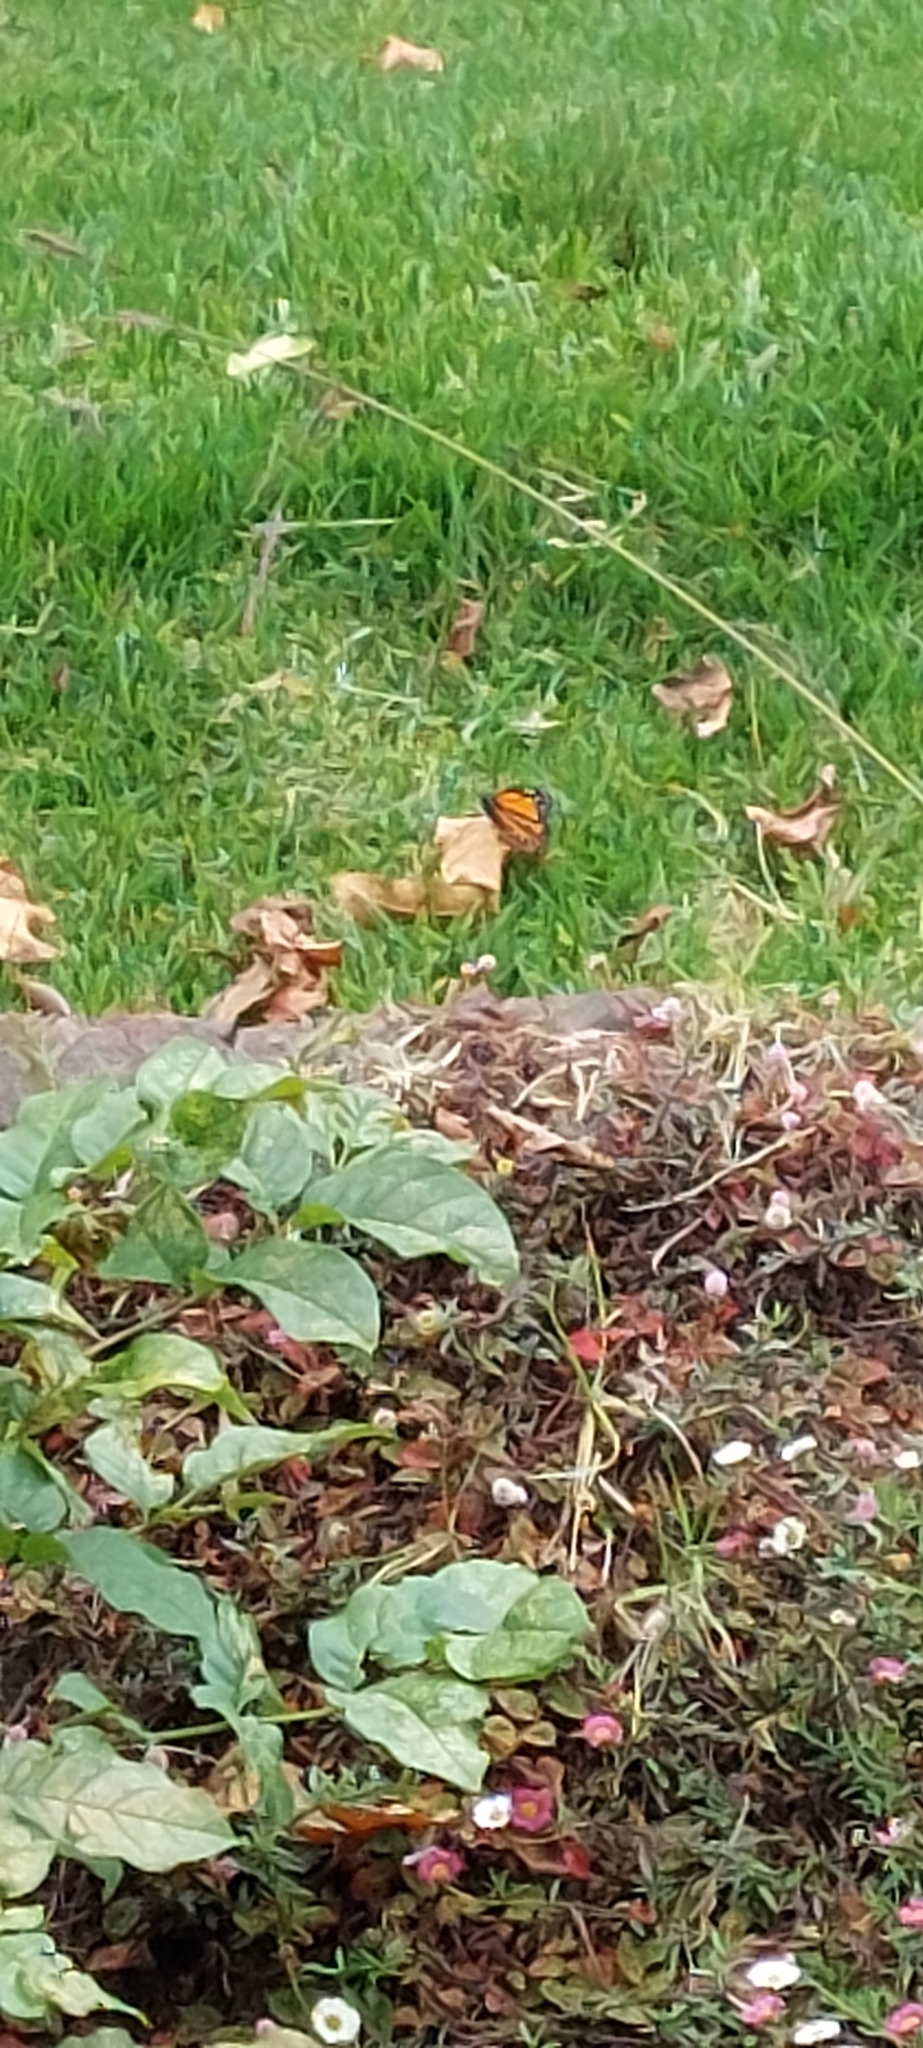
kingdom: Animalia
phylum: Arthropoda
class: Insecta
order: Lepidoptera
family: Nymphalidae
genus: Danaus
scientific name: Danaus plexippus
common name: Monarch
